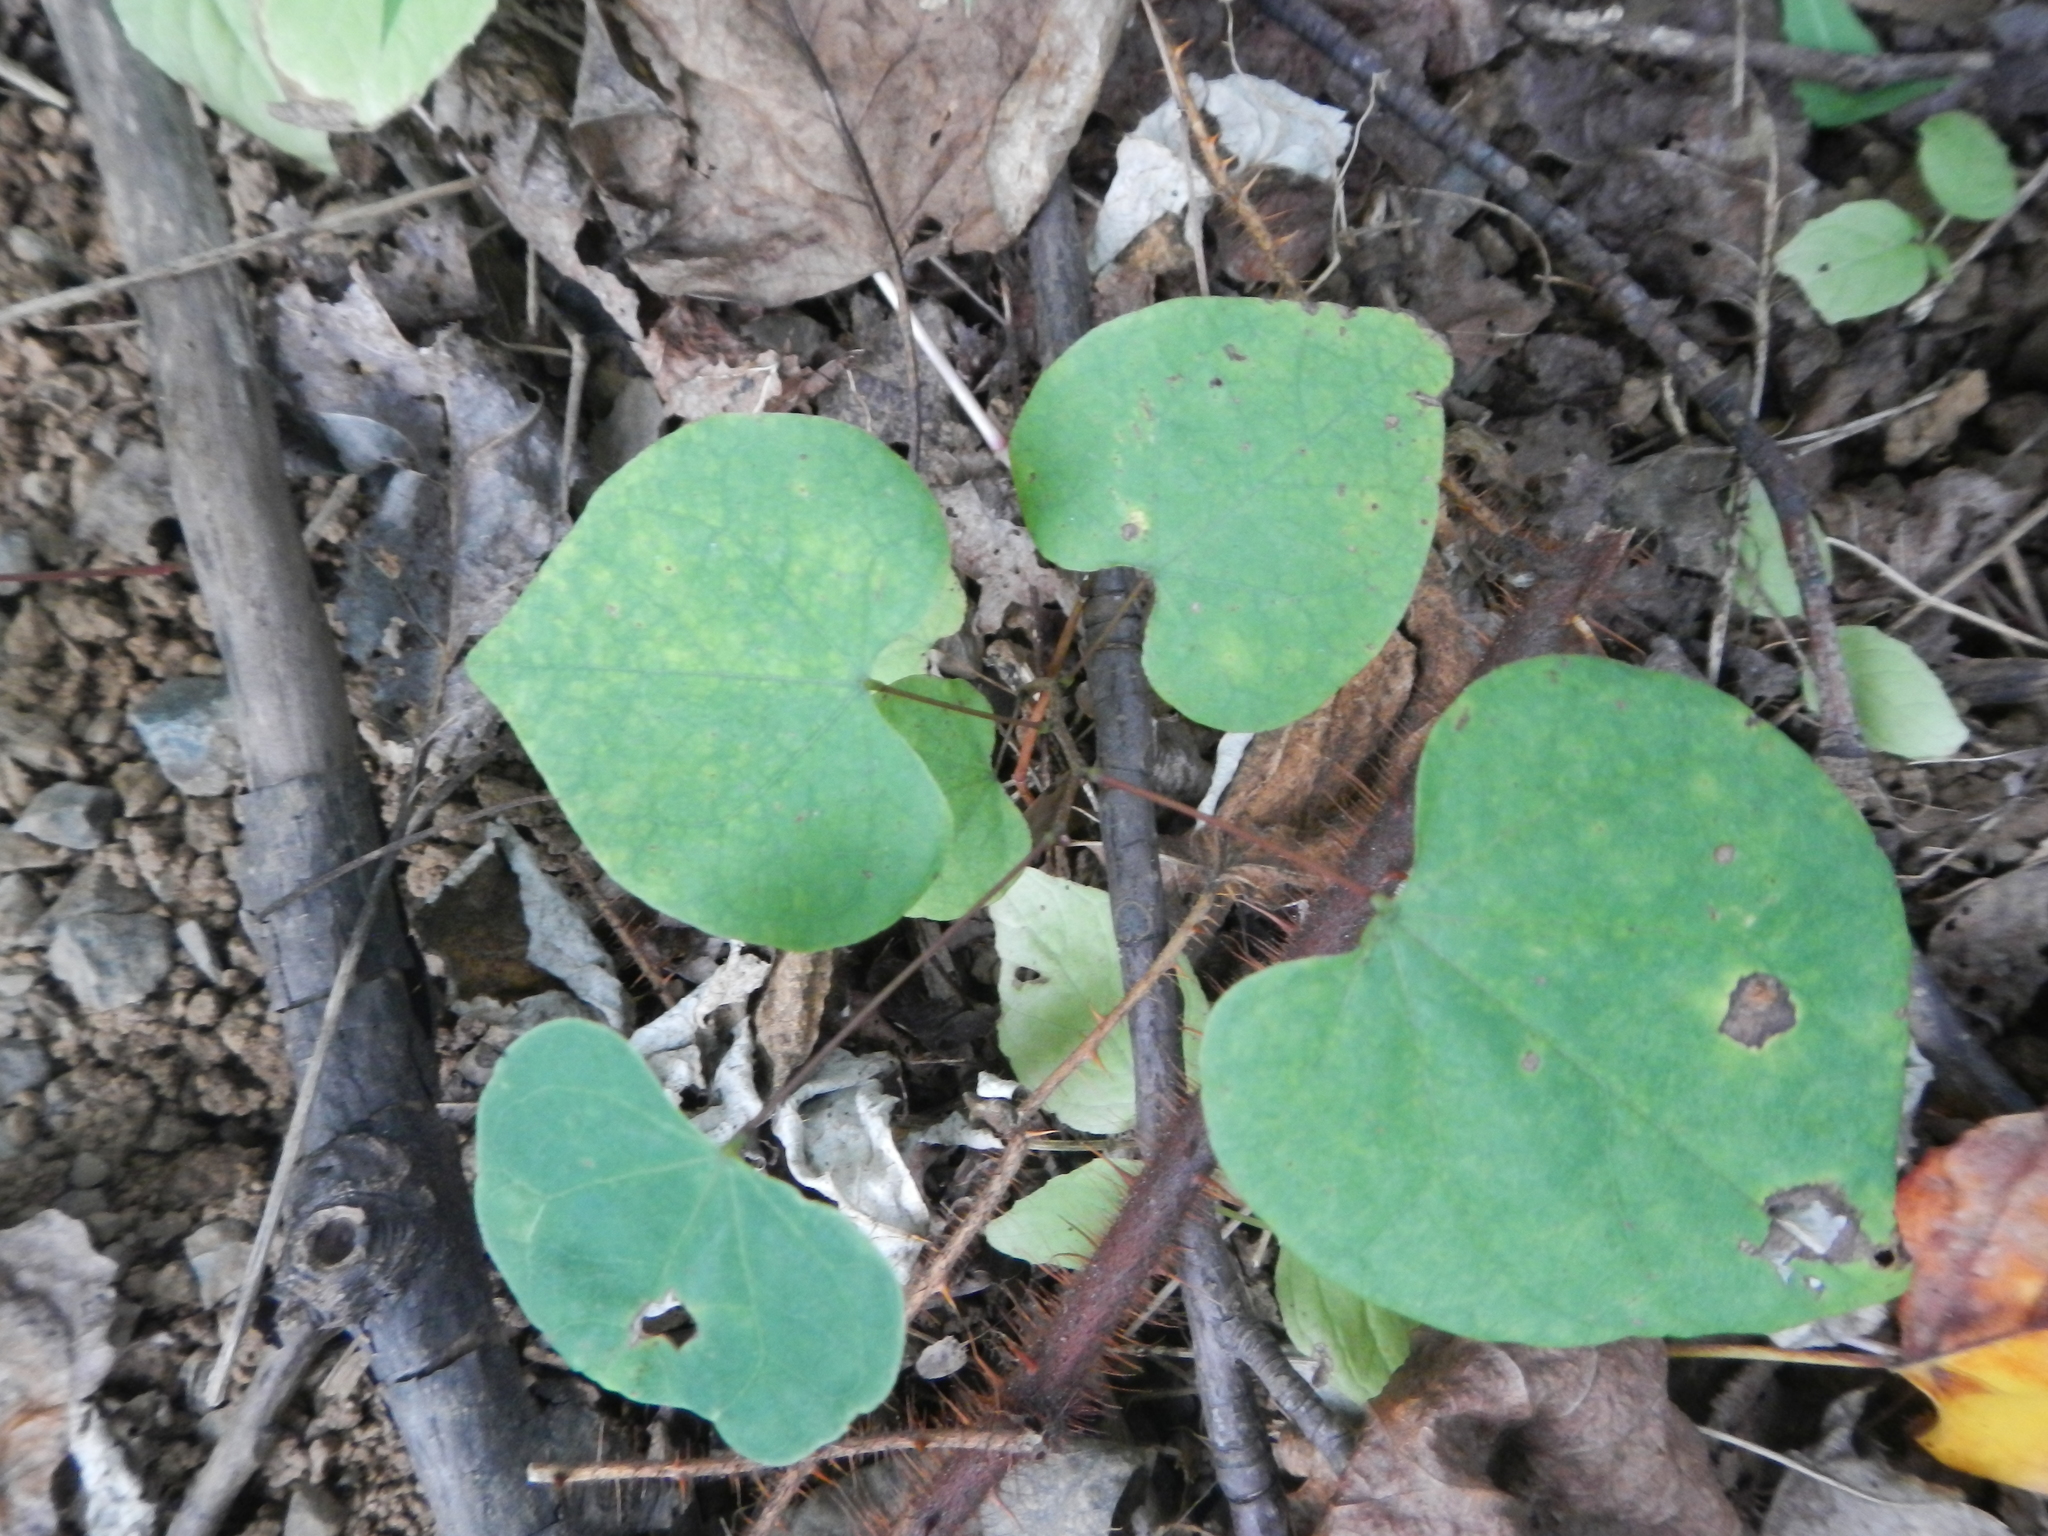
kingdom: Plantae
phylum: Tracheophyta
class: Magnoliopsida
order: Fabales
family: Fabaceae
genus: Cercis
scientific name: Cercis canadensis
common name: Eastern redbud
